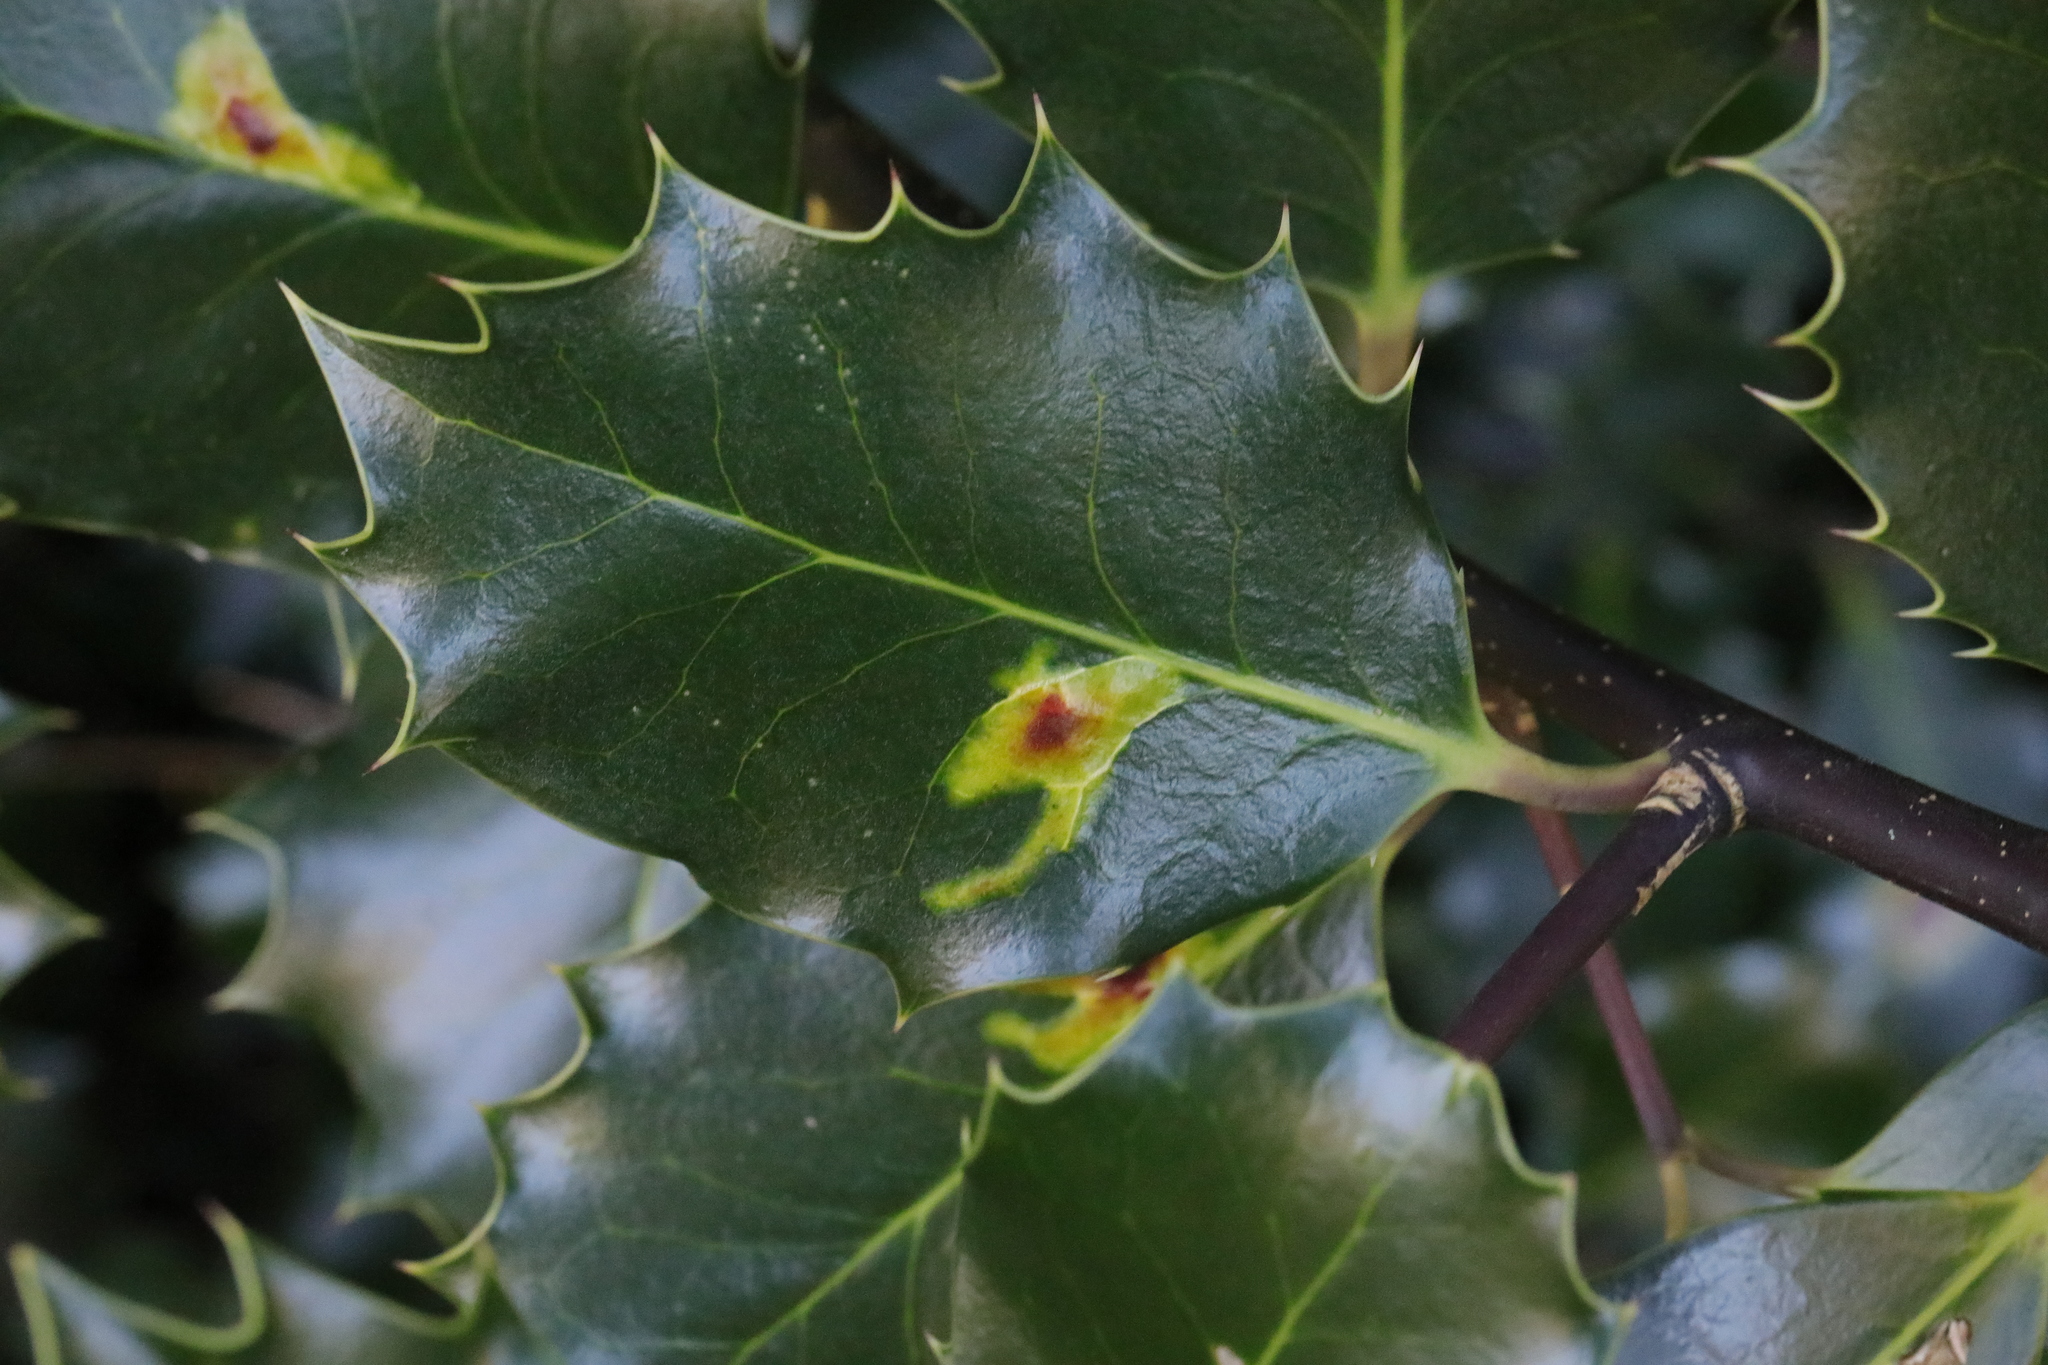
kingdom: Animalia
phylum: Arthropoda
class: Insecta
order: Diptera
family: Agromyzidae
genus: Phytomyza
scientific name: Phytomyza ilicis
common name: Holly leafminer
